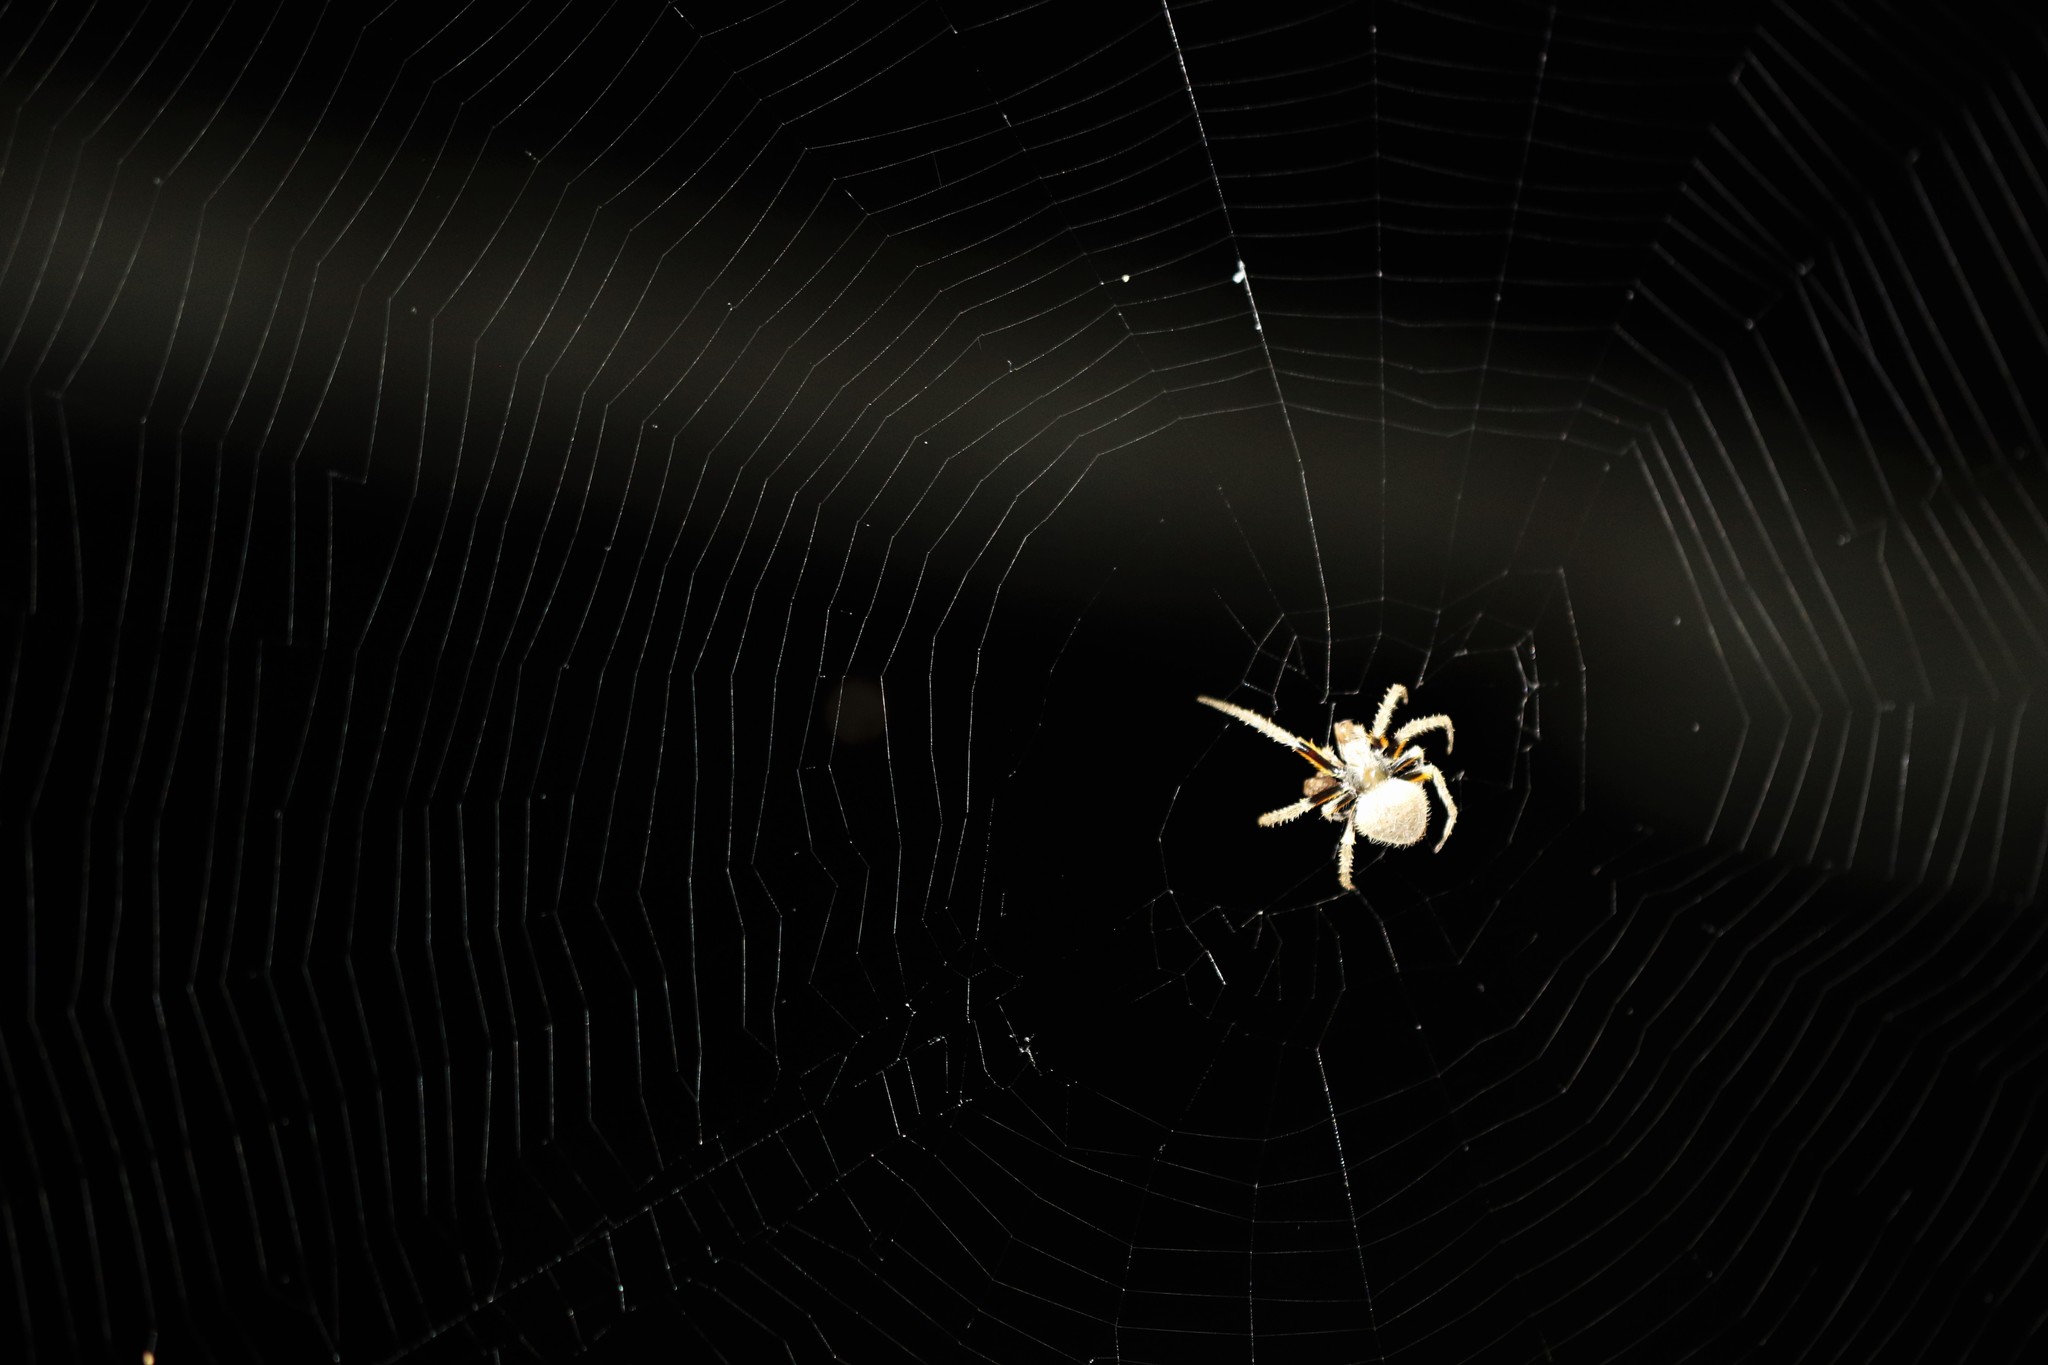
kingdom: Animalia
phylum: Arthropoda
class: Arachnida
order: Araneae
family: Araneidae
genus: Eriophora
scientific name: Eriophora ravilla
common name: Orb weavers
